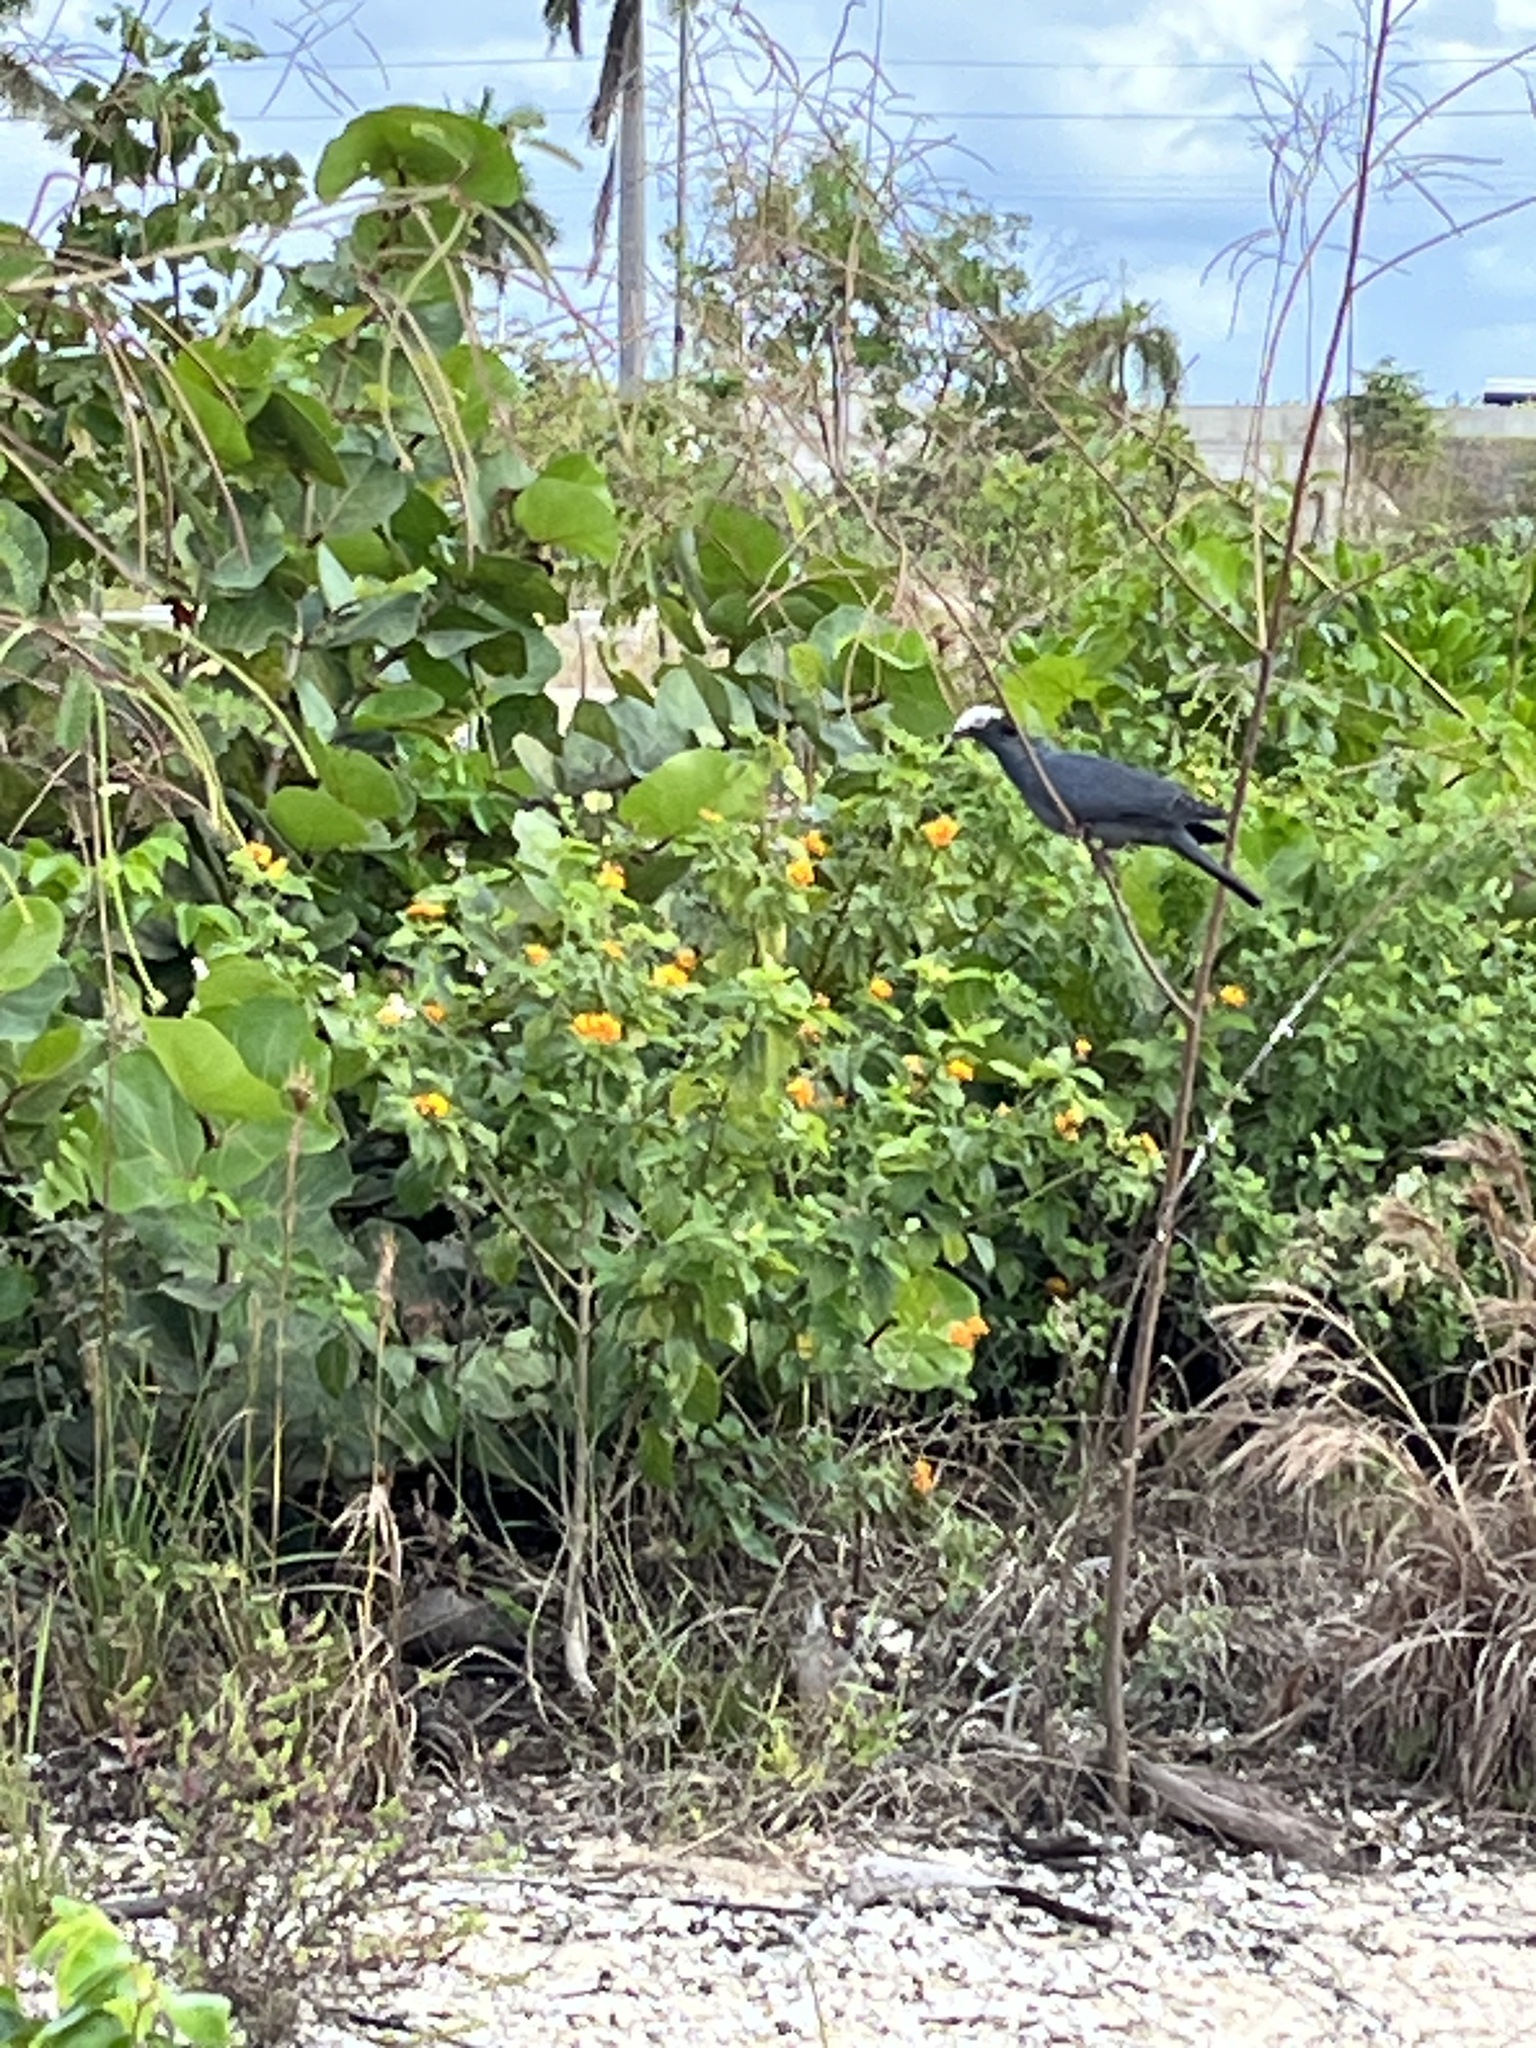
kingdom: Animalia
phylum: Chordata
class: Aves
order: Columbiformes
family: Columbidae
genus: Patagioenas
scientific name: Patagioenas leucocephala
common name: White-crowned pigeon
